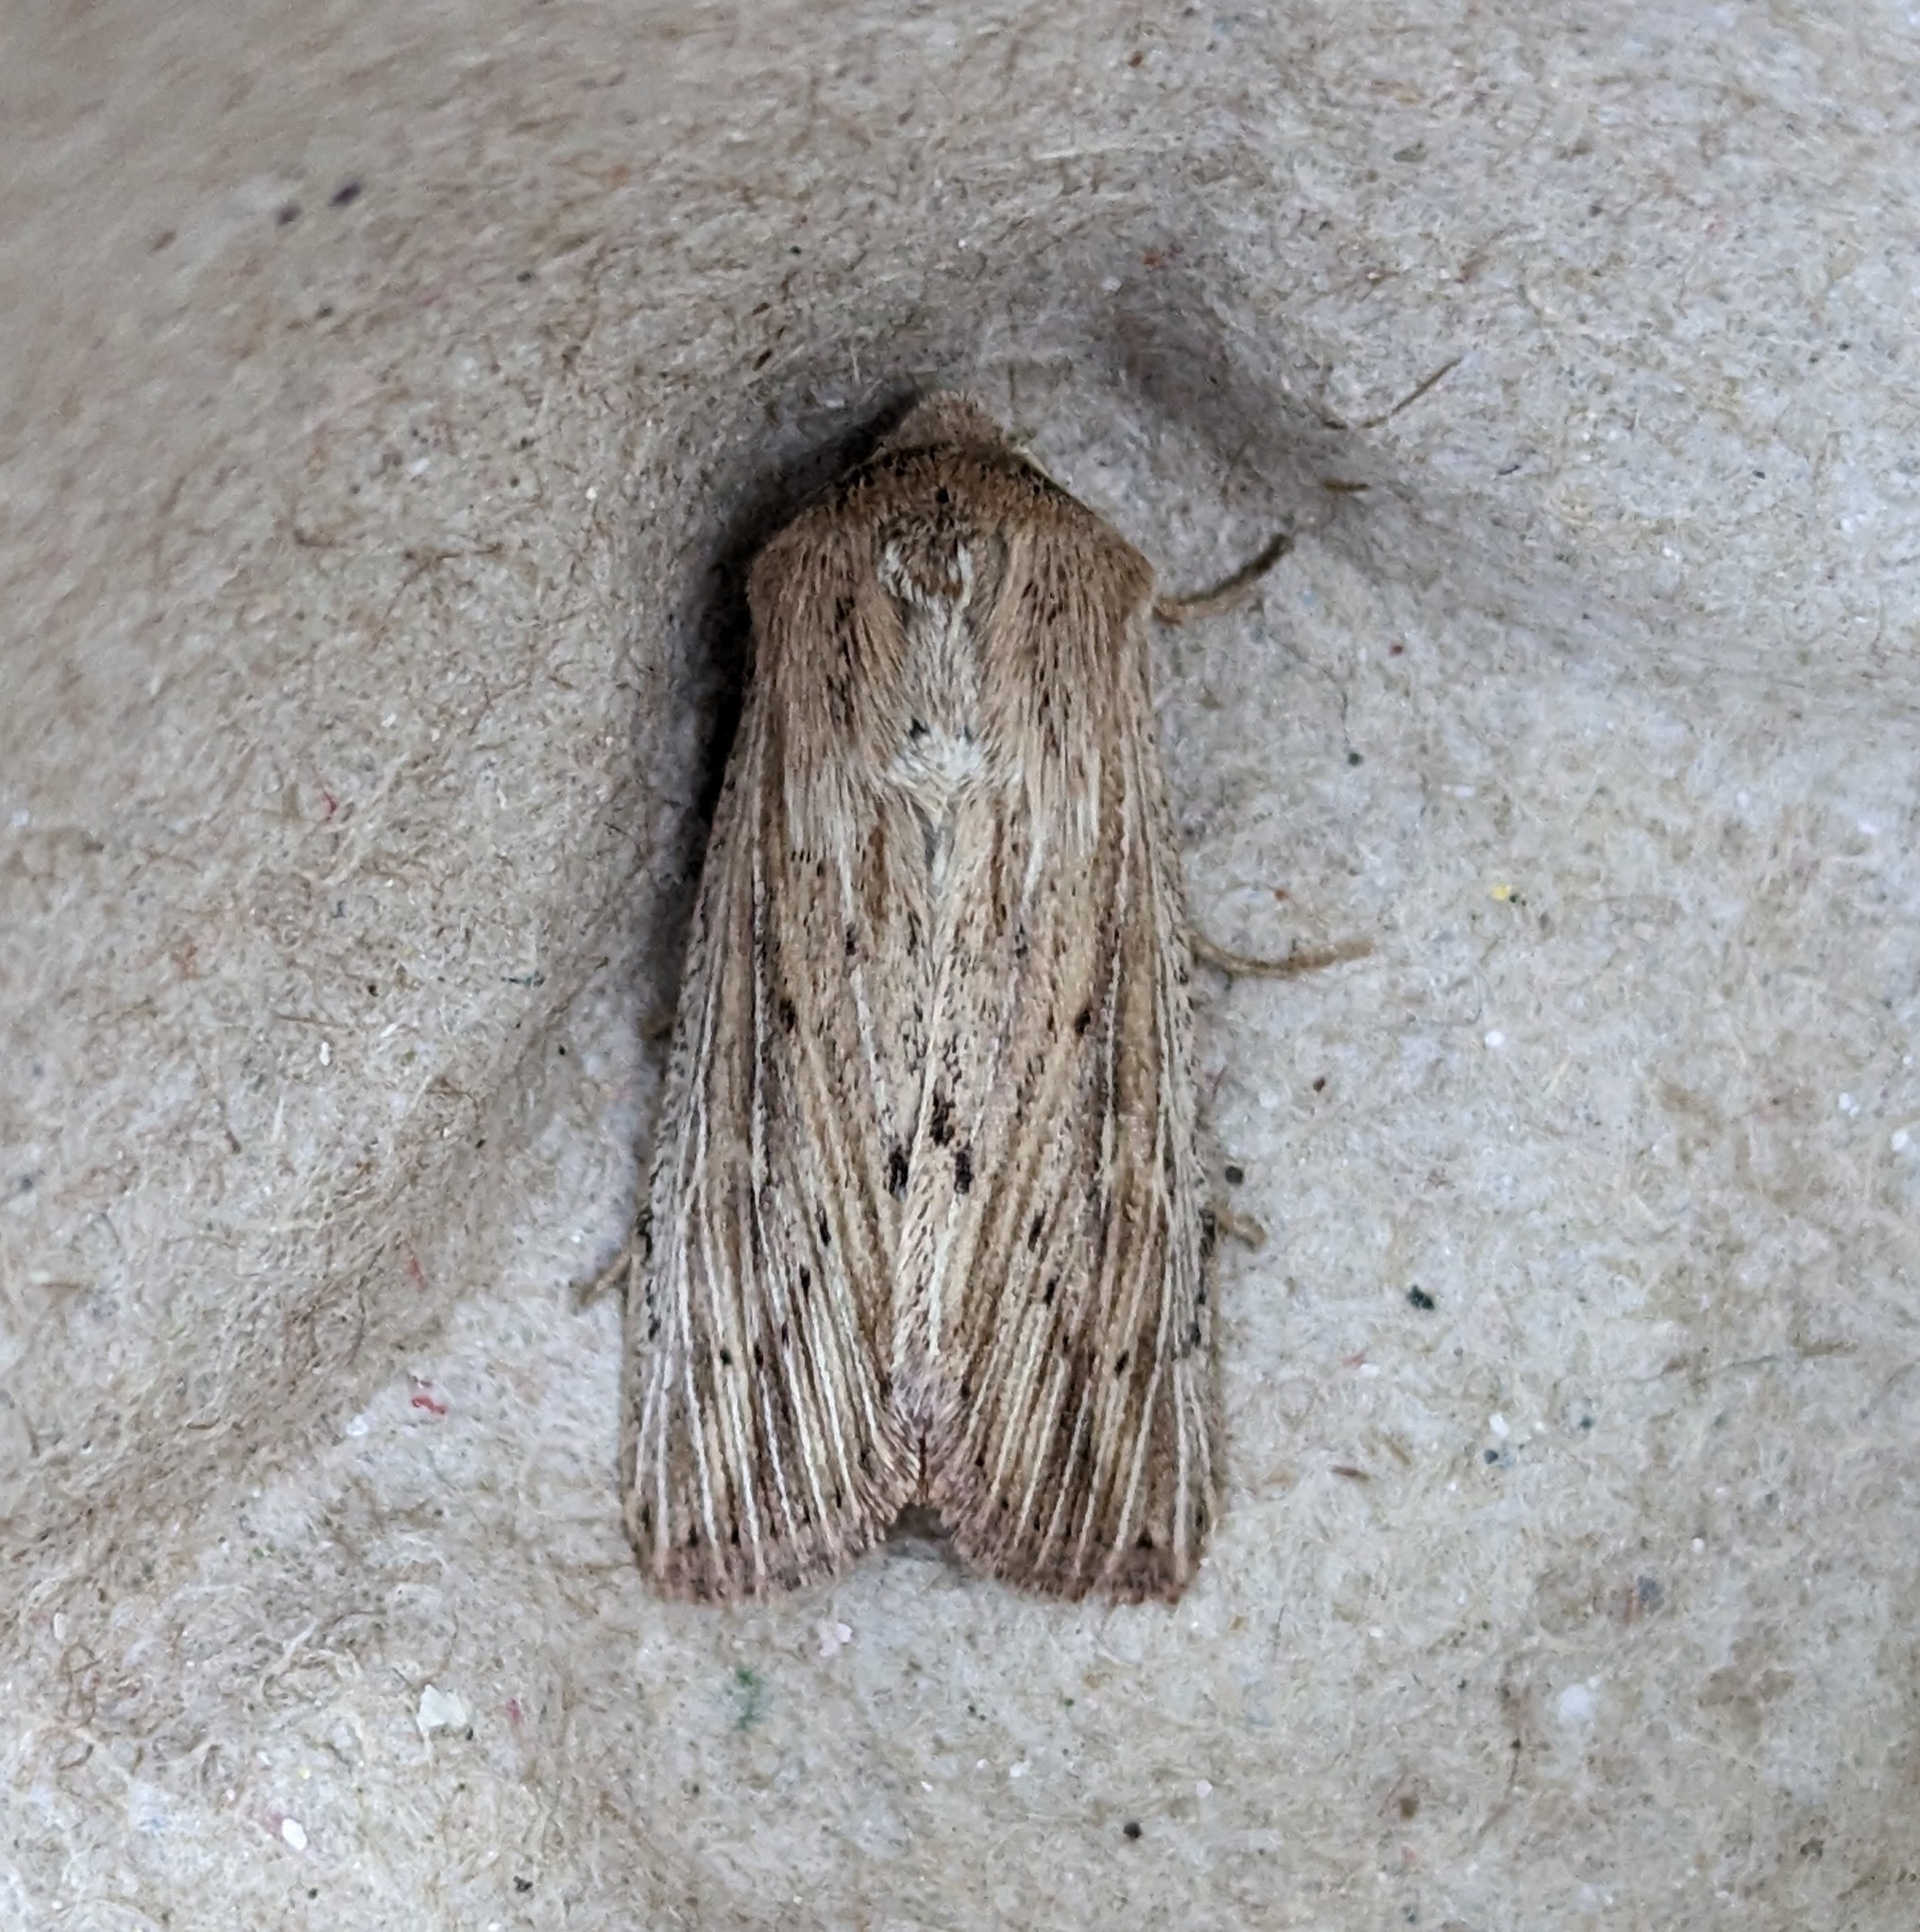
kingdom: Animalia
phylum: Arthropoda
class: Insecta
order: Lepidoptera
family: Noctuidae
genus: Leucania
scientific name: Leucania insueta
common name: Heterodox wainscot moth
